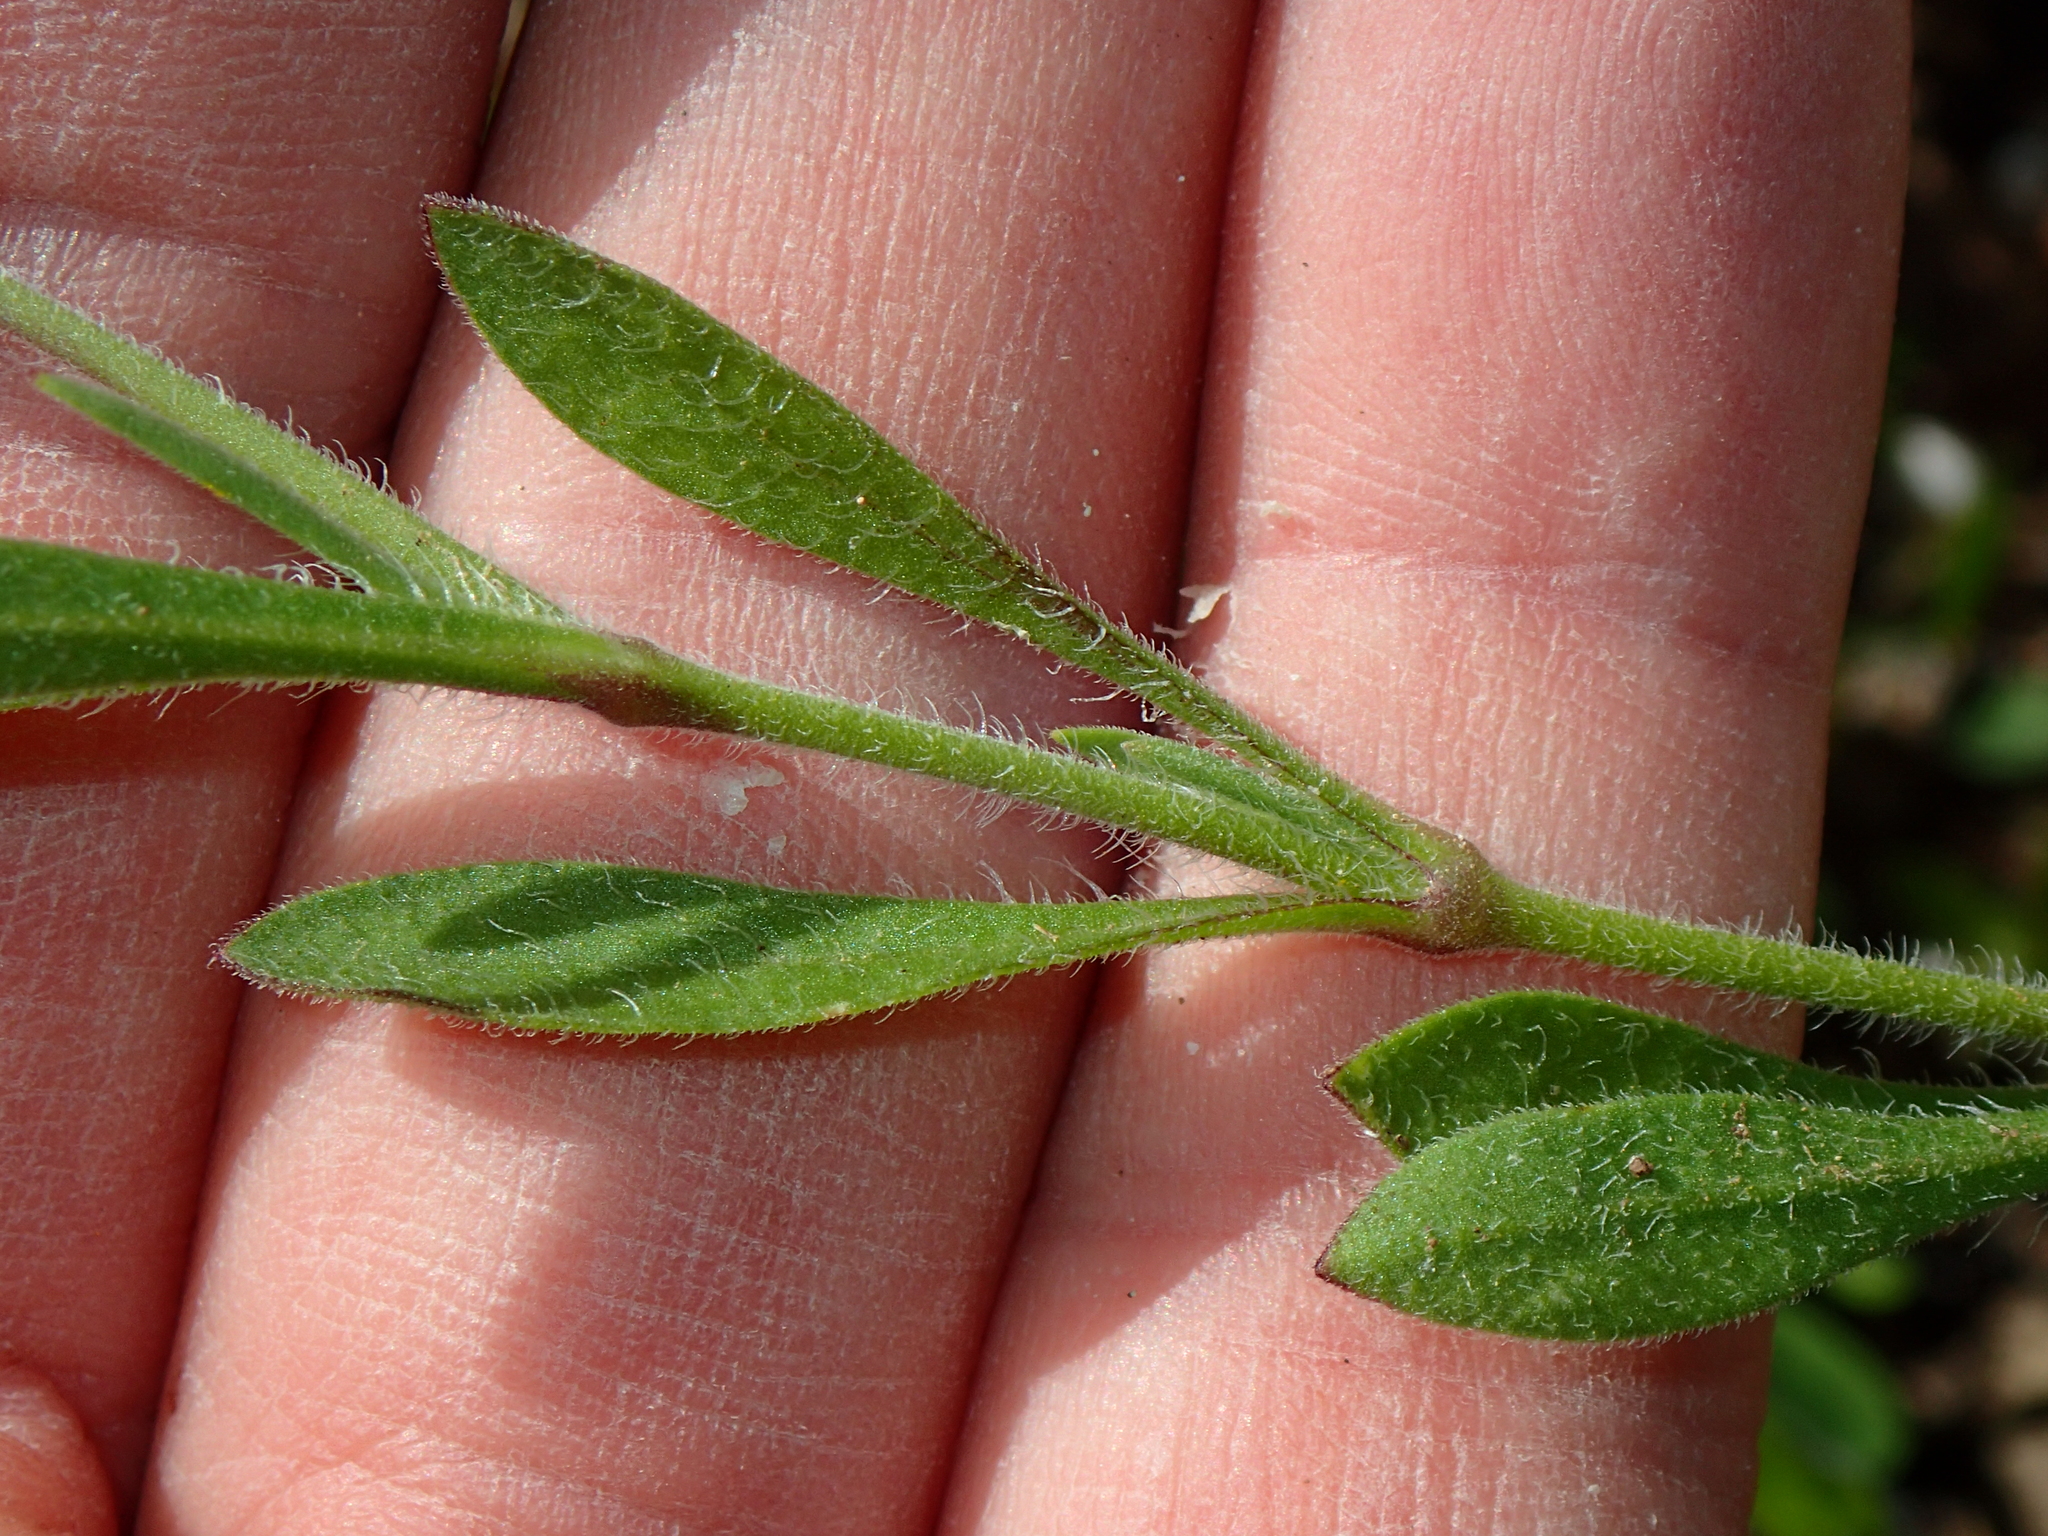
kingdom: Plantae
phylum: Tracheophyta
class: Magnoliopsida
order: Caryophyllales
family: Caryophyllaceae
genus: Silene
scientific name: Silene tridentata
